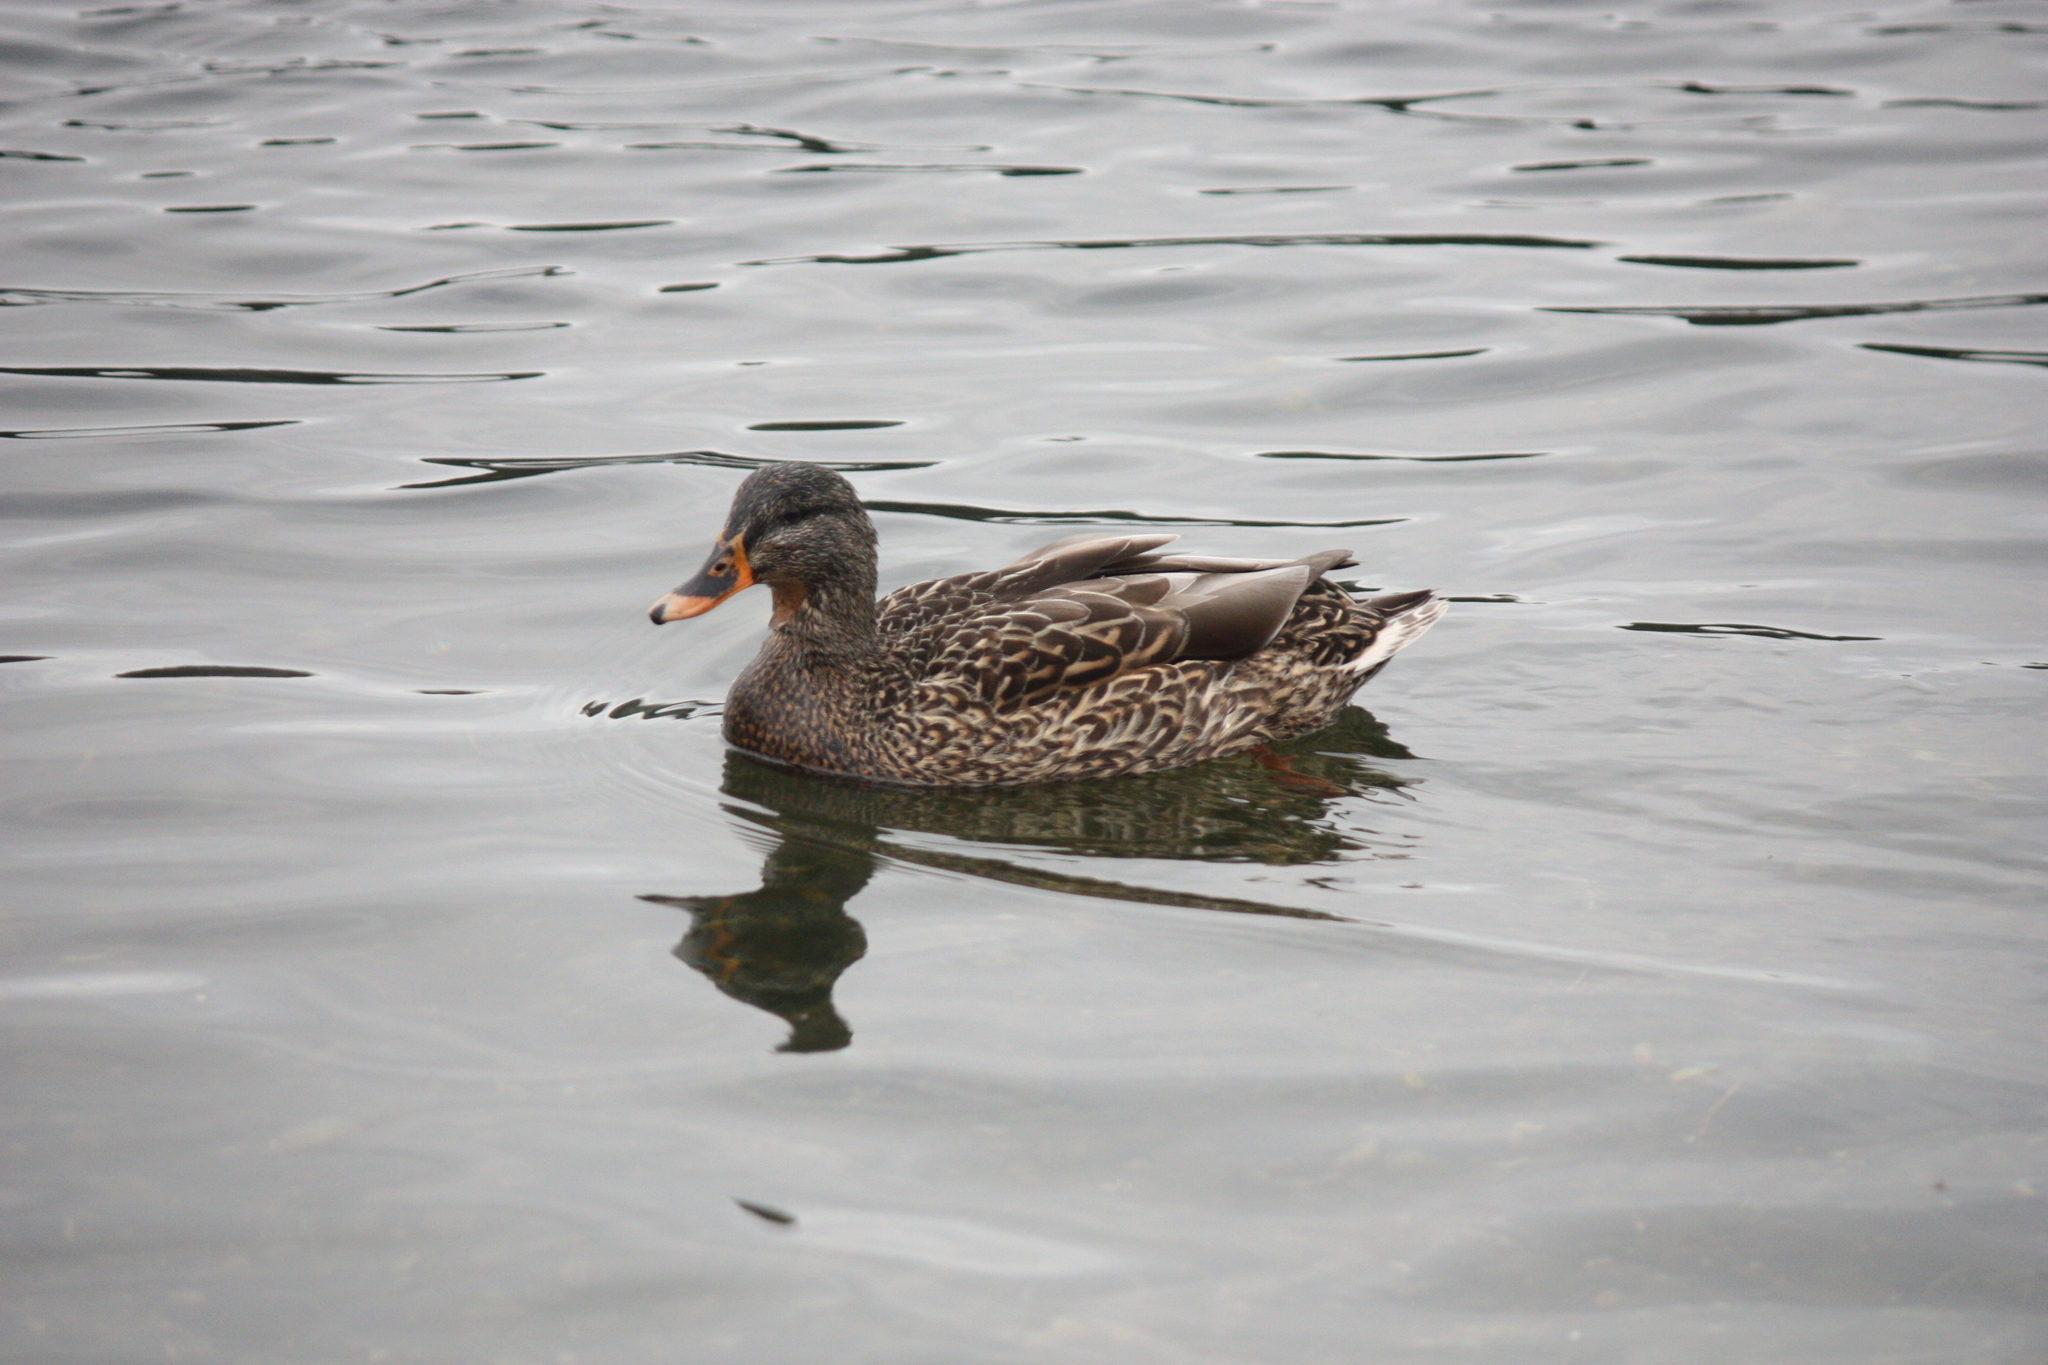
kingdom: Animalia
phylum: Chordata
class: Aves
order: Anseriformes
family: Anatidae
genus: Anas
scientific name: Anas platyrhynchos
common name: Mallard
